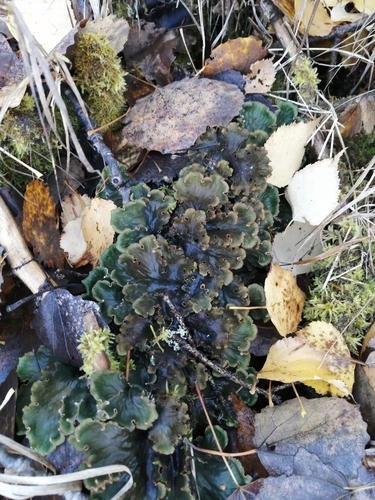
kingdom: Fungi
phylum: Ascomycota
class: Lecanoromycetes
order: Peltigerales
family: Peltigeraceae
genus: Peltigera
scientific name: Peltigera
